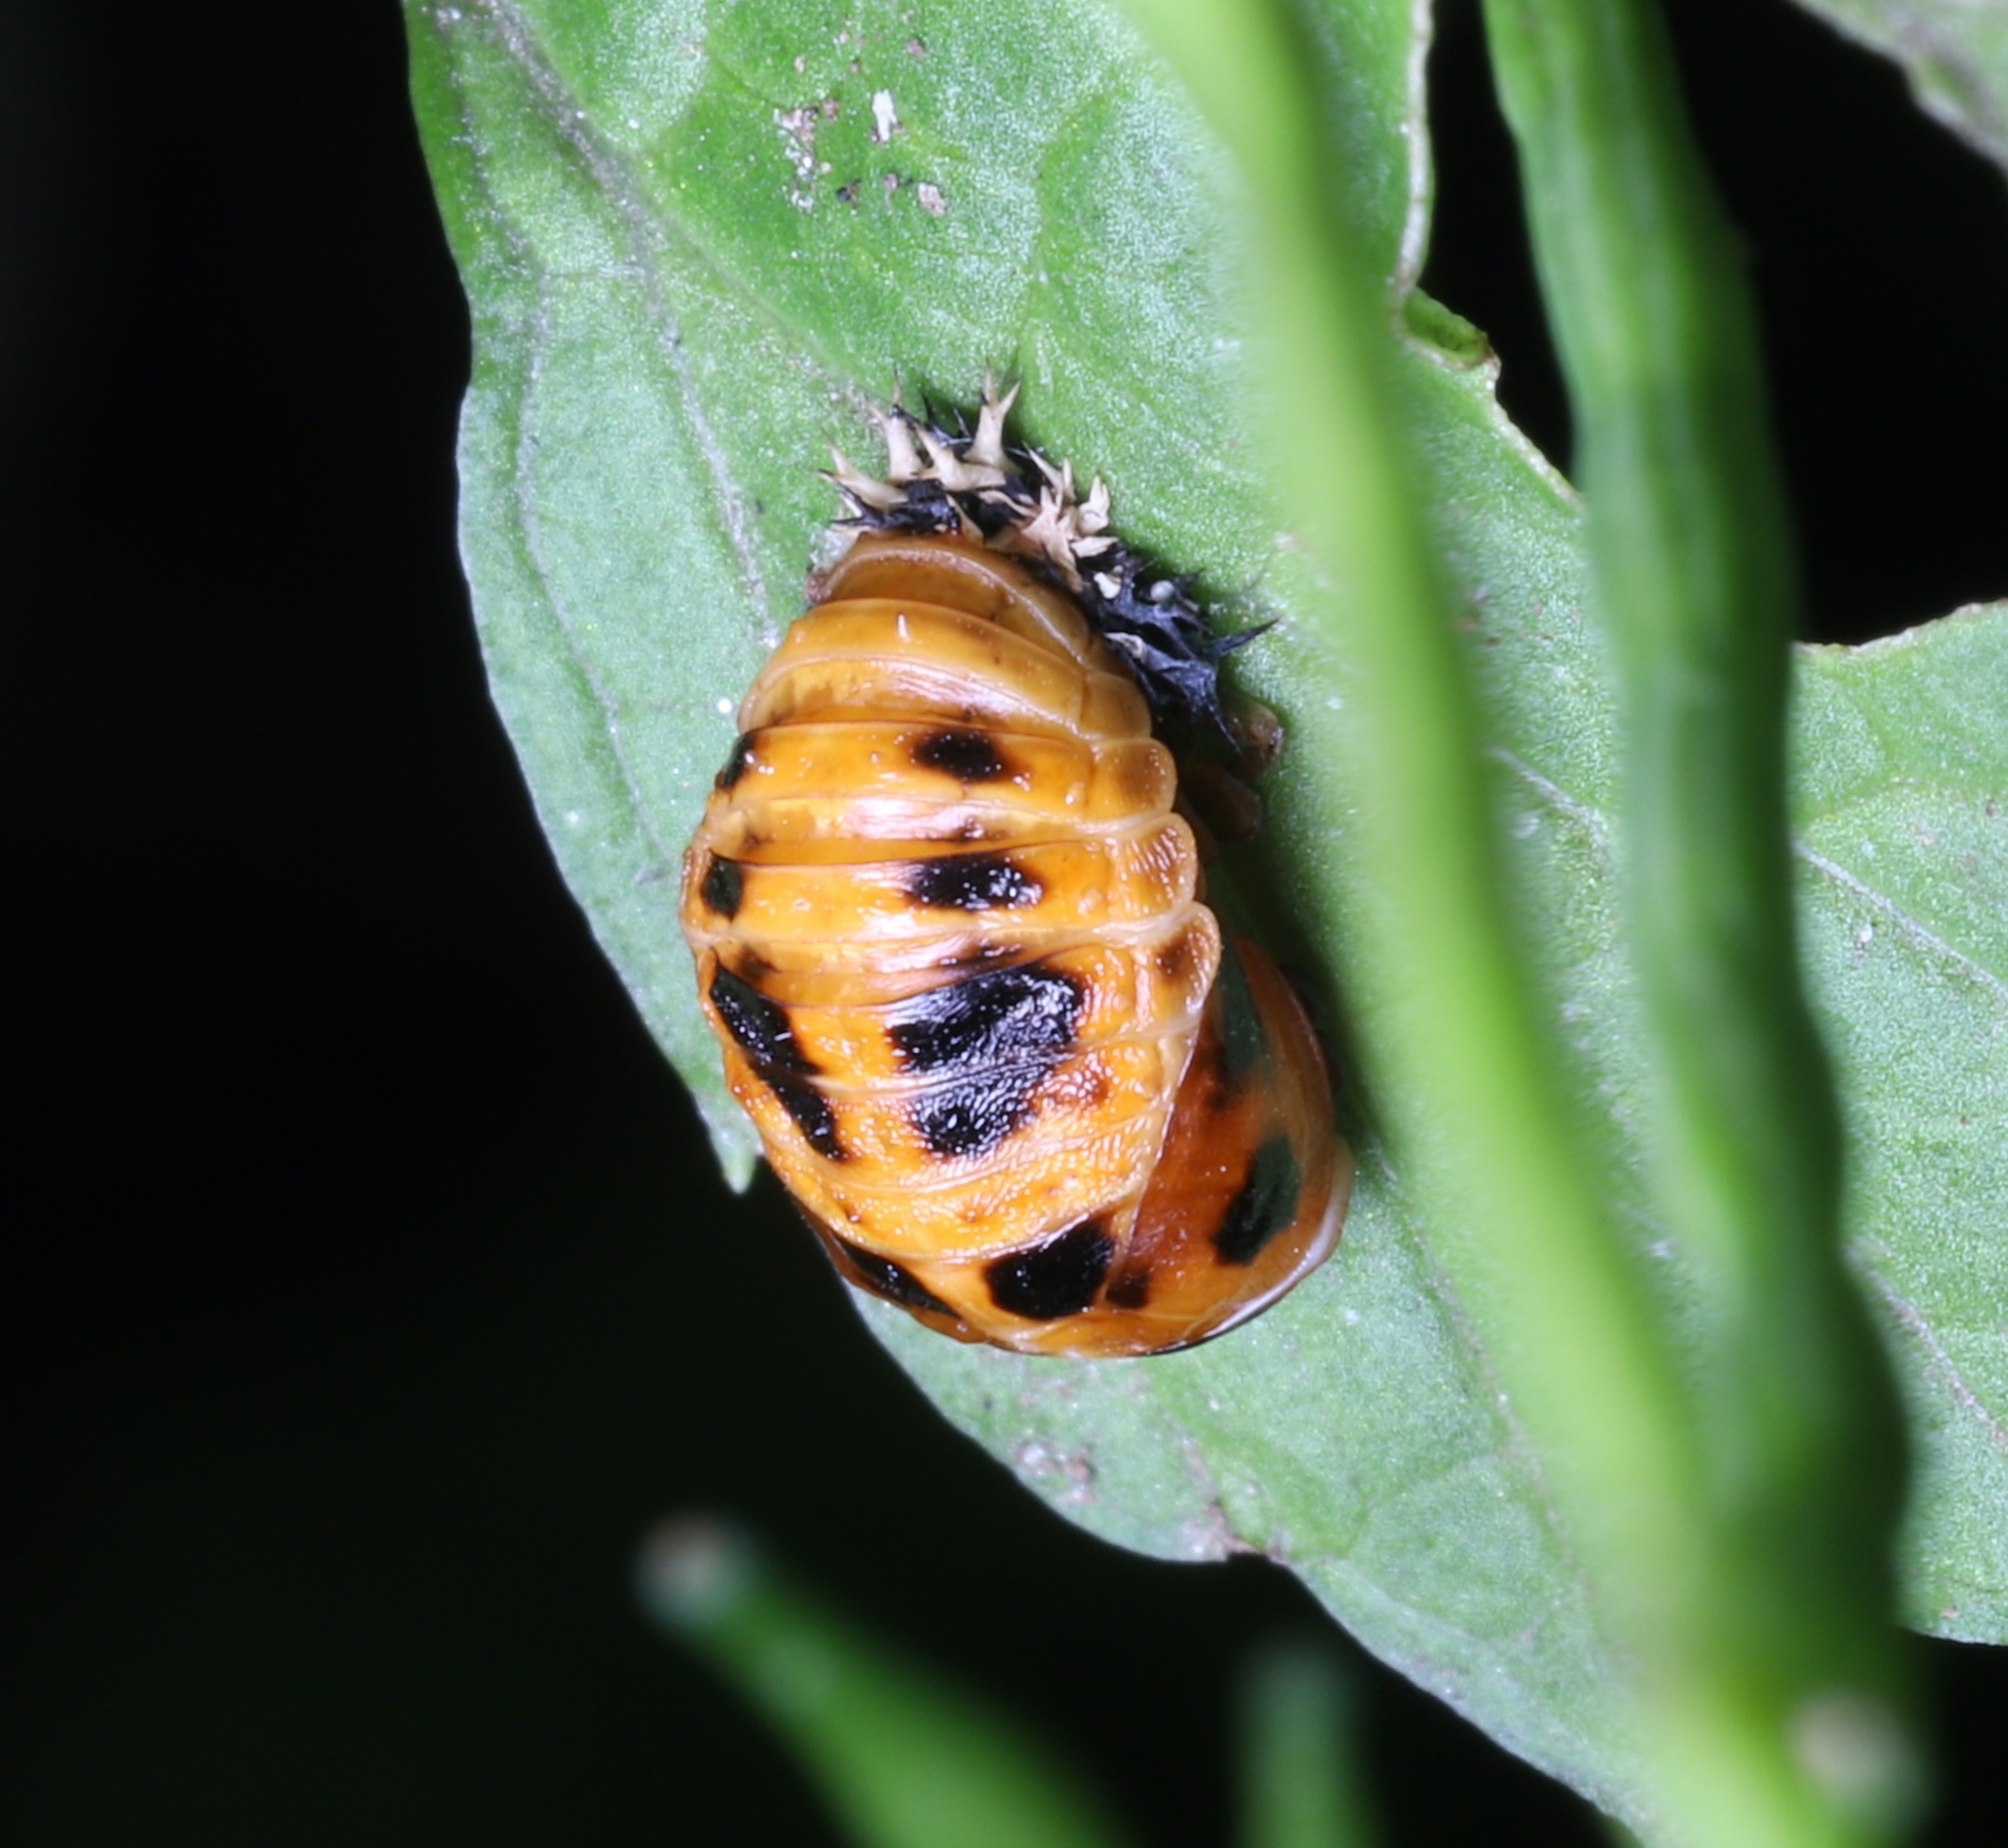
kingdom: Animalia
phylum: Arthropoda
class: Insecta
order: Coleoptera
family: Coccinellidae
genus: Harmonia
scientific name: Harmonia axyridis
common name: Harlequin ladybird
